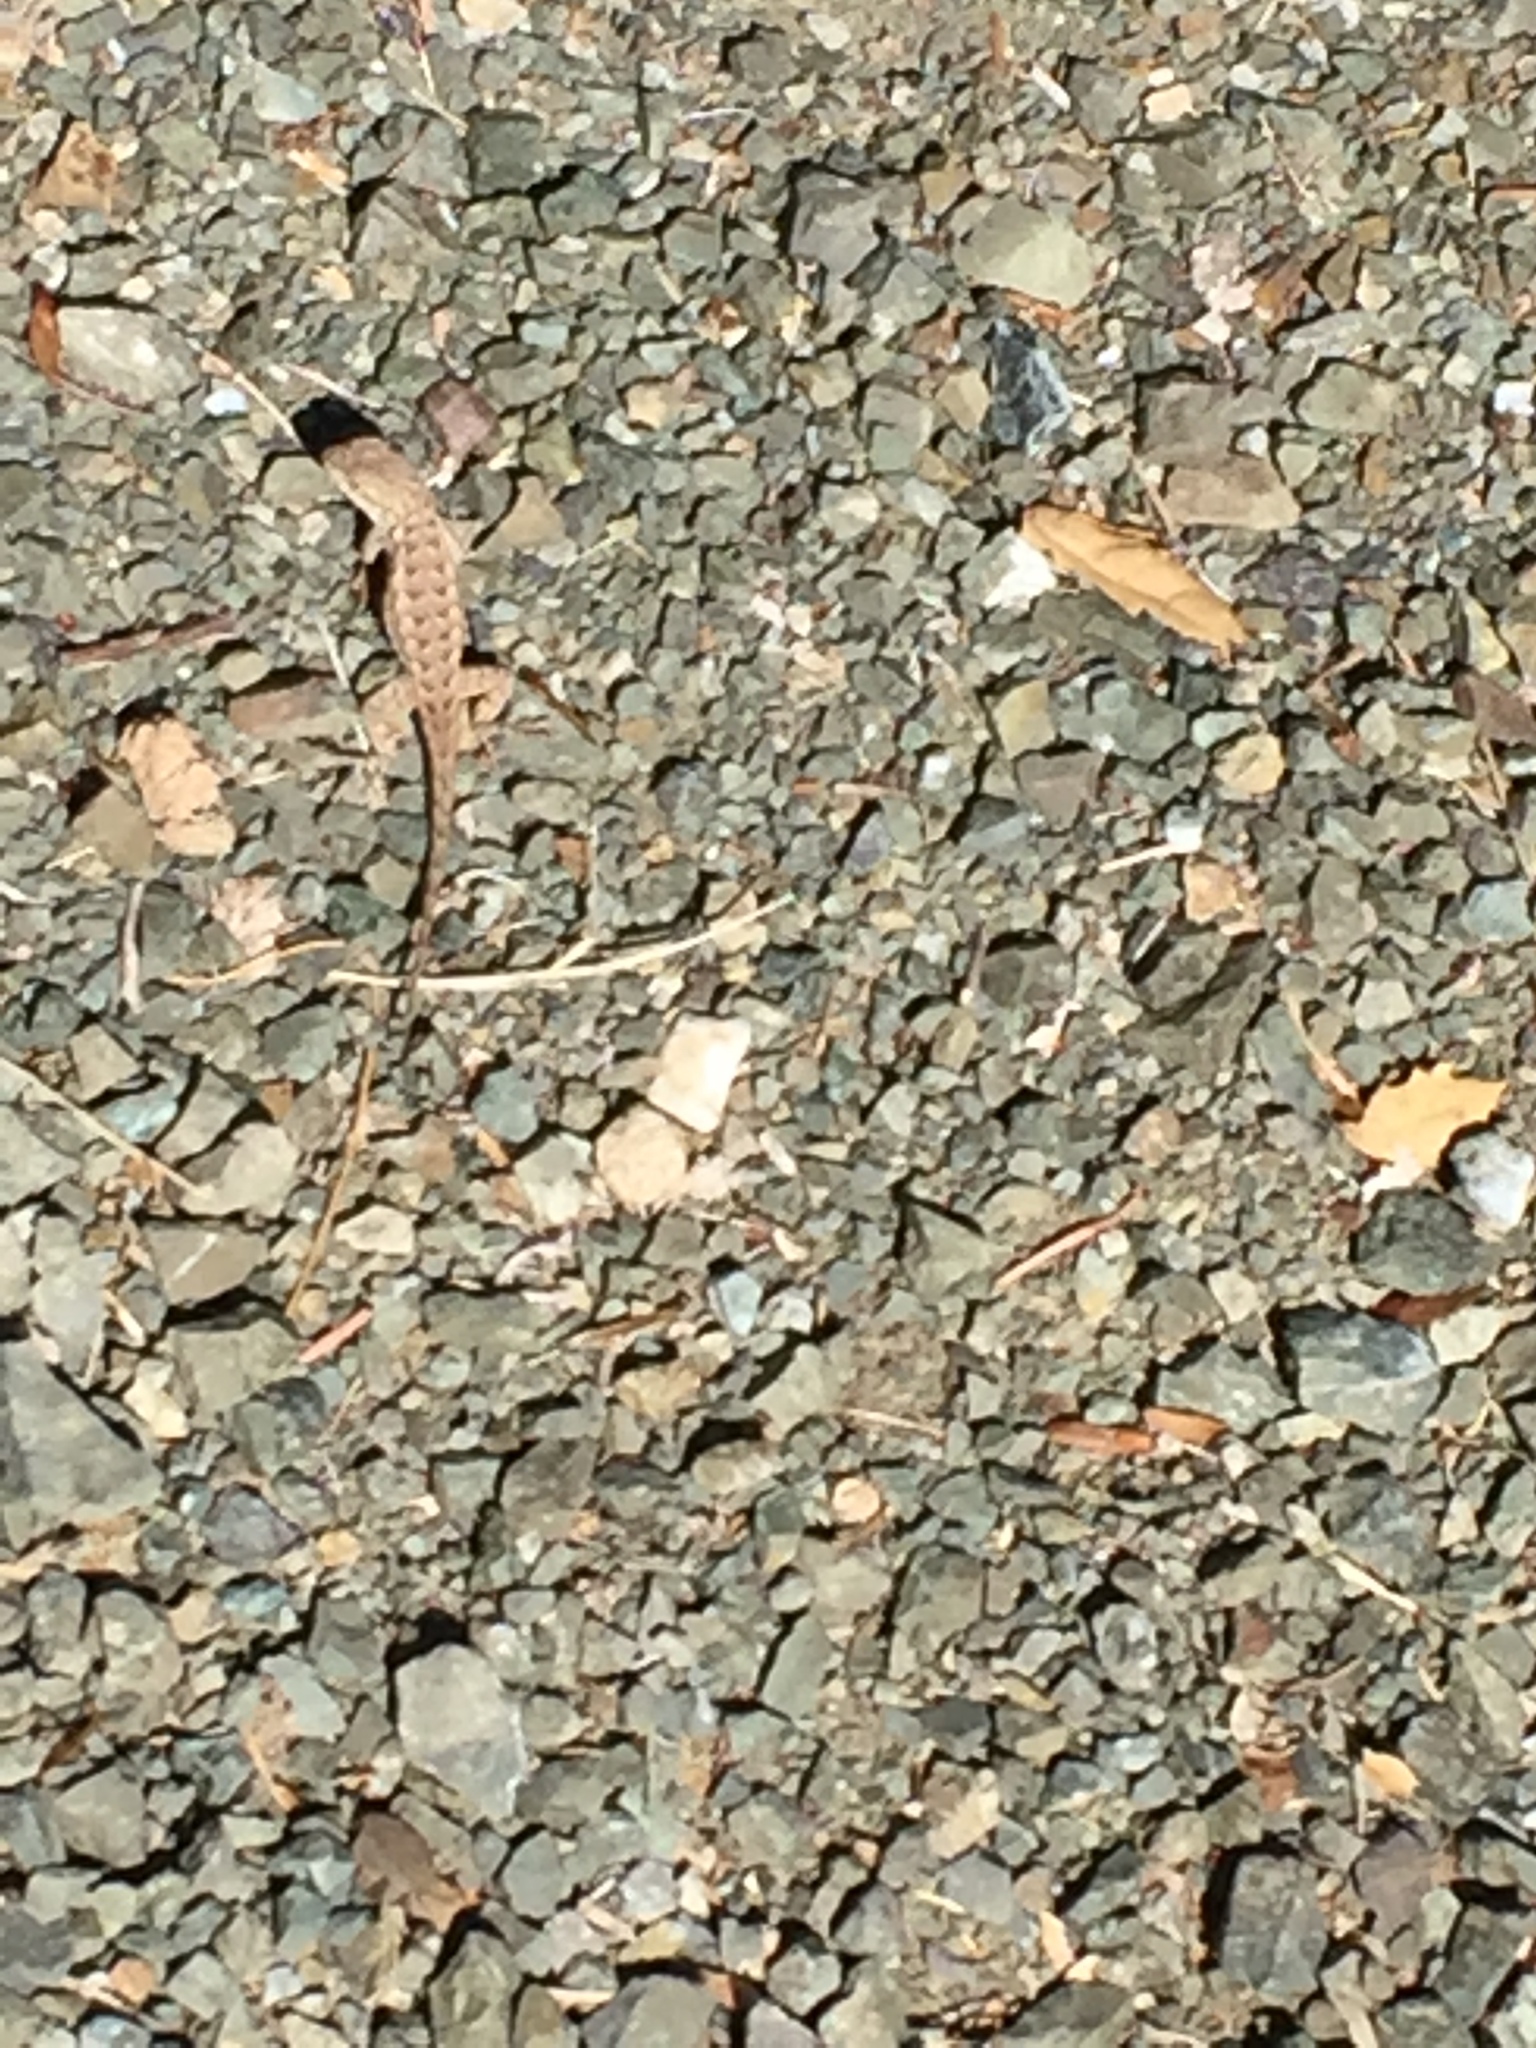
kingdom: Animalia
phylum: Chordata
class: Squamata
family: Phrynosomatidae
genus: Sceloporus
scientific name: Sceloporus occidentalis
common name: Western fence lizard
